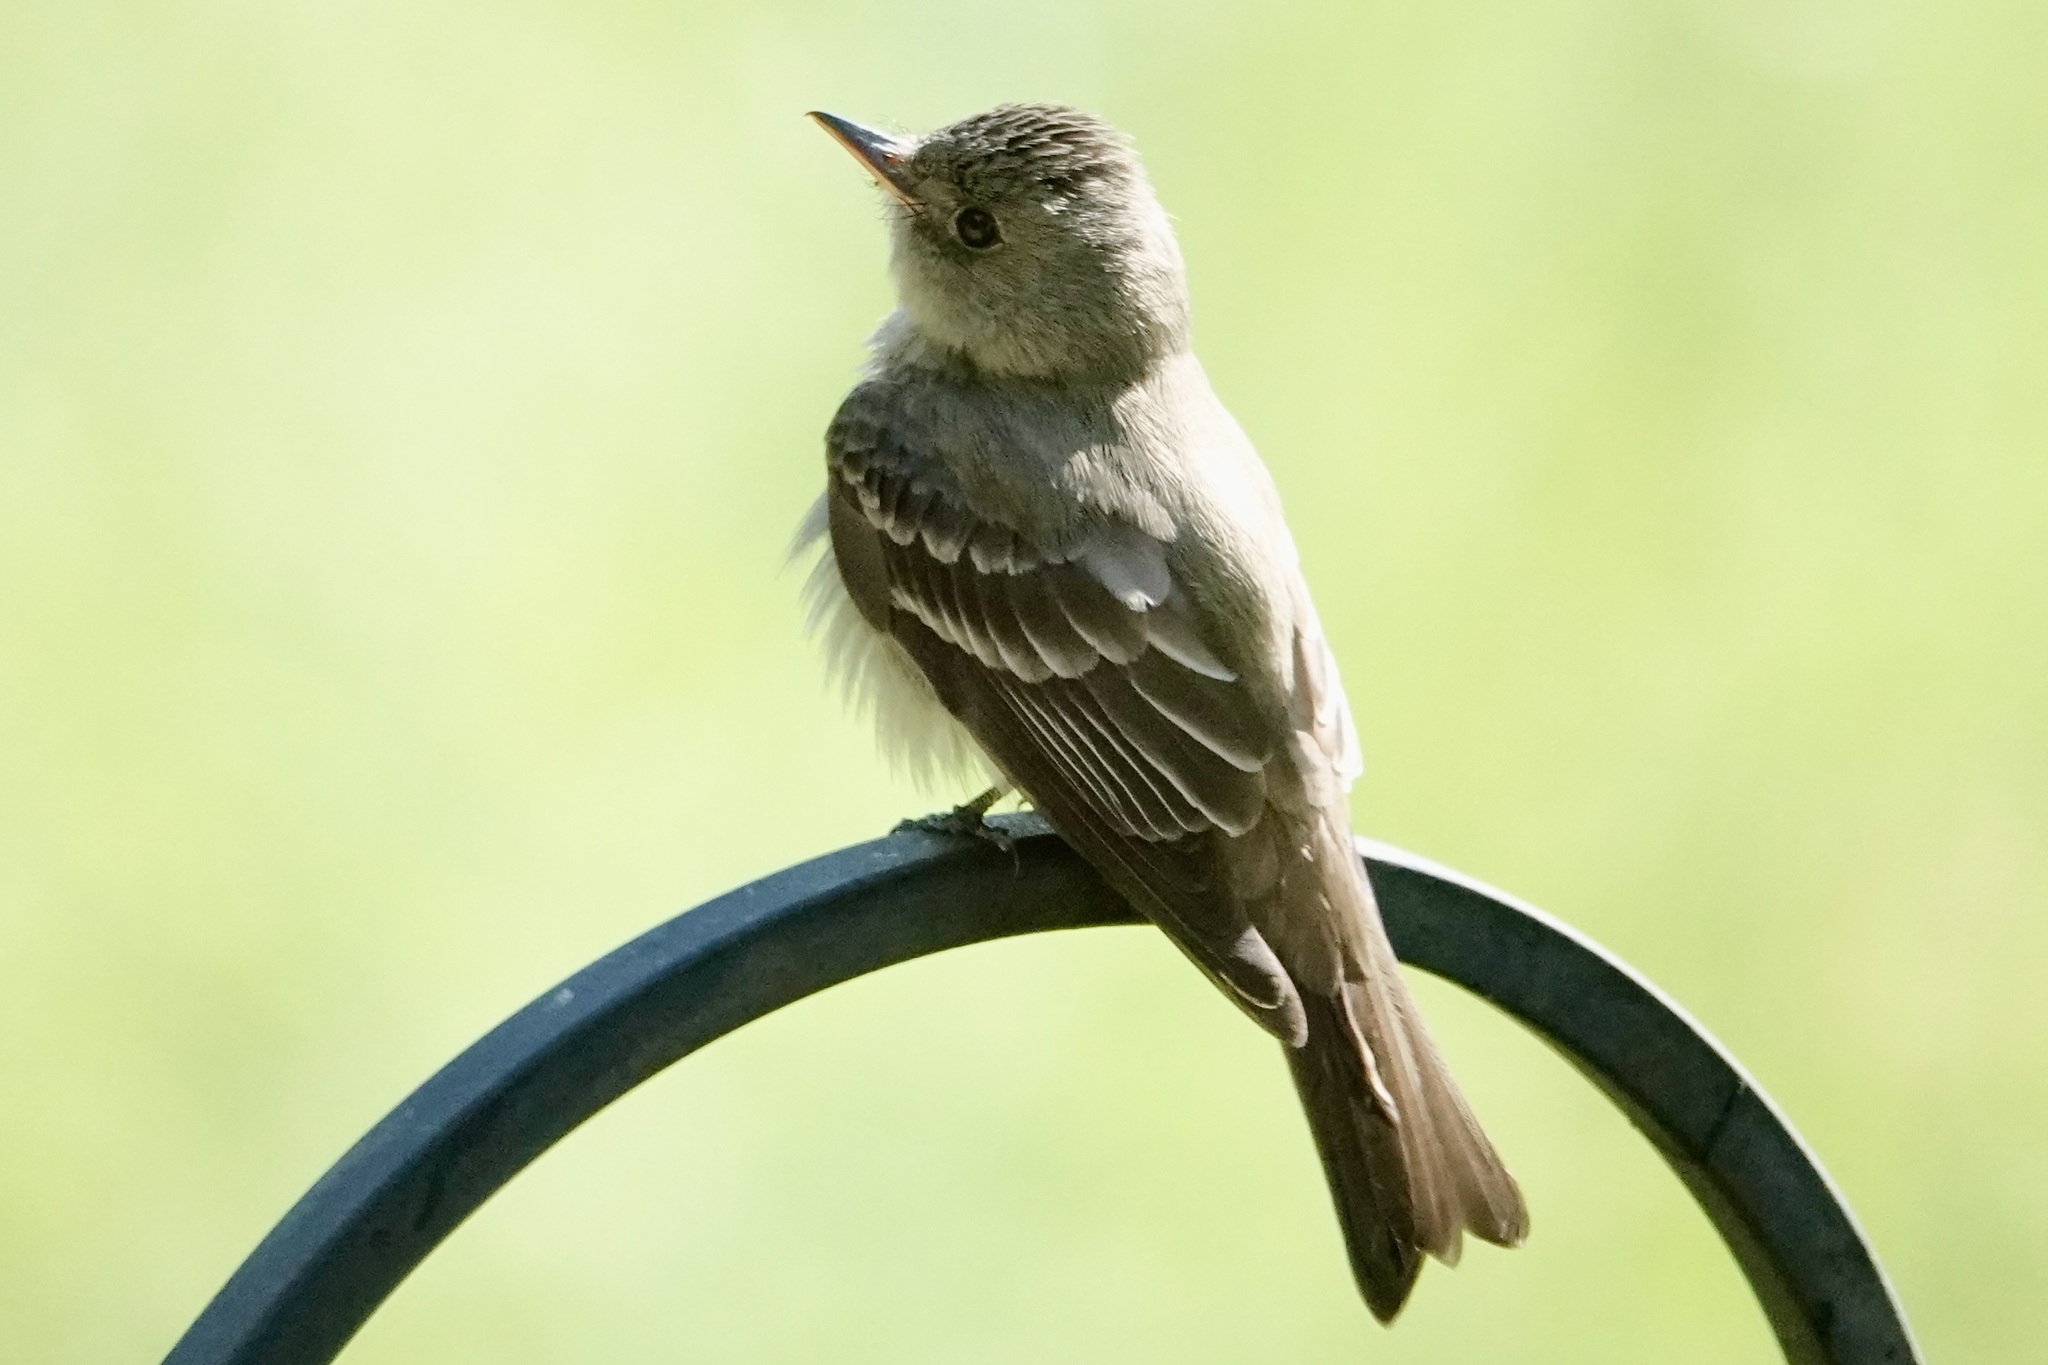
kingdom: Animalia
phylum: Chordata
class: Aves
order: Passeriformes
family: Tyrannidae
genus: Contopus
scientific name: Contopus virens
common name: Eastern wood-pewee
